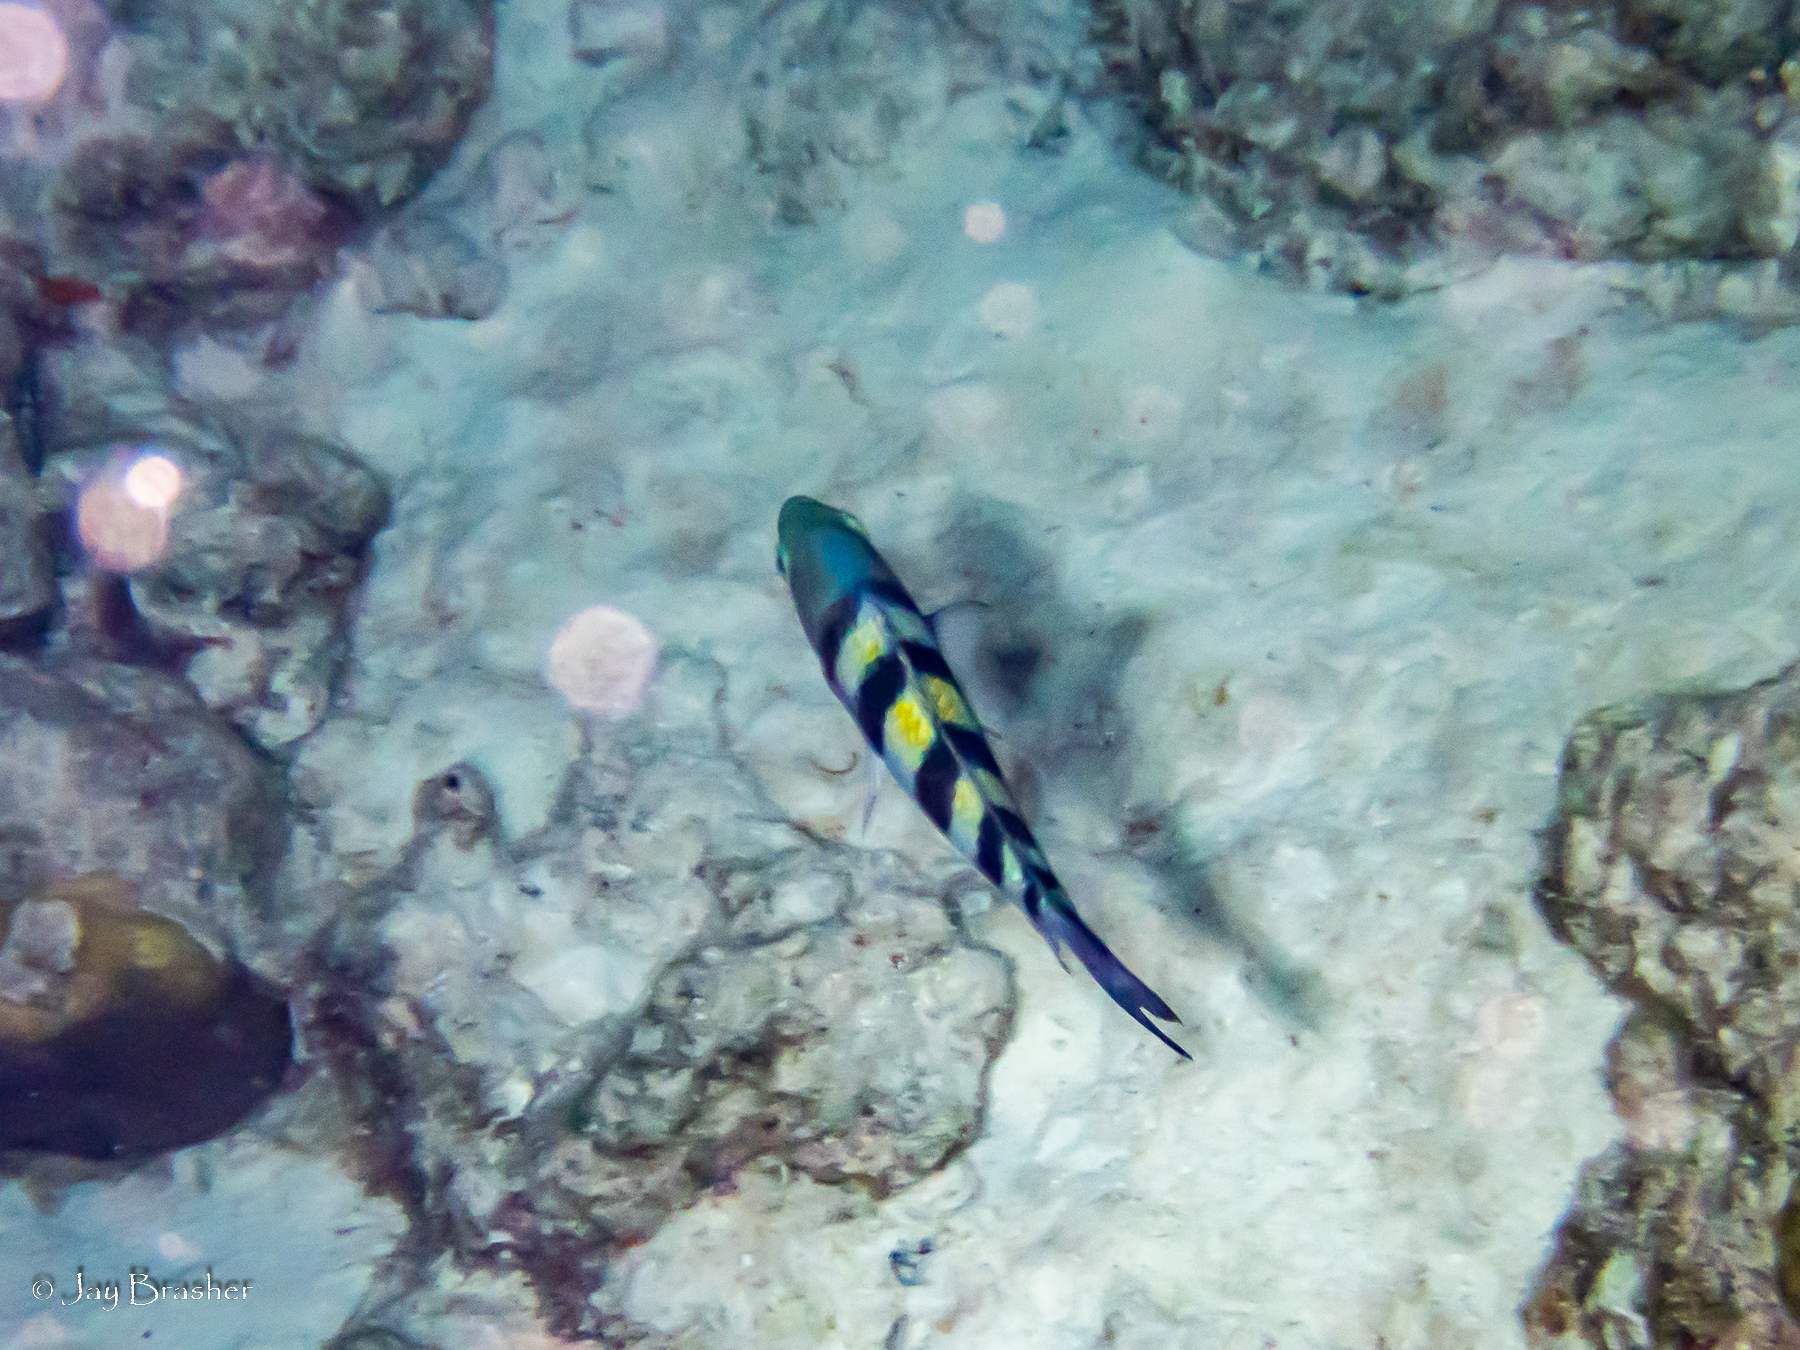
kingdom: Animalia
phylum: Chordata
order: Perciformes
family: Pomacentridae
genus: Abudefduf
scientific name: Abudefduf saxatilis
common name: Sergeant major
